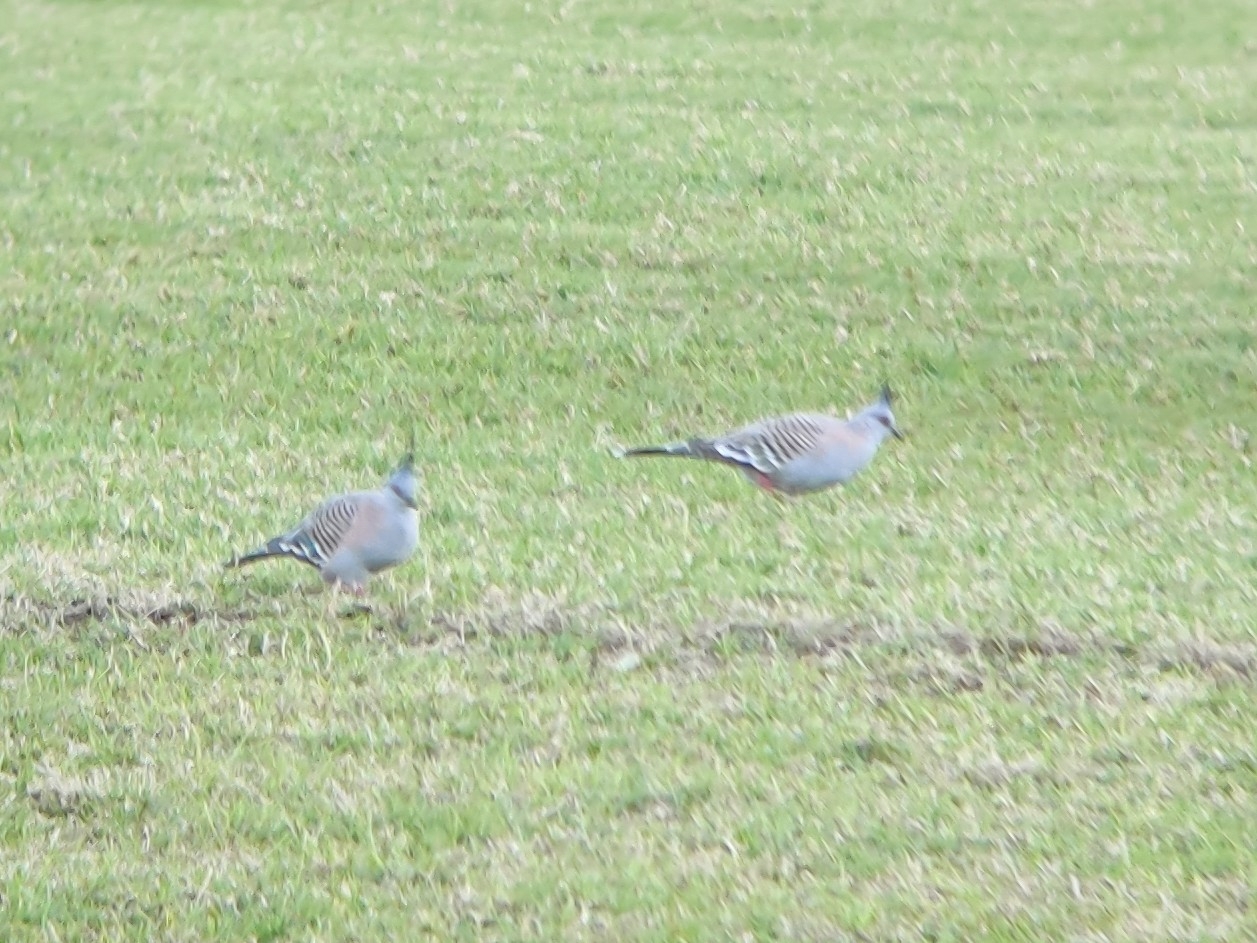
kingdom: Animalia
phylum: Chordata
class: Aves
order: Columbiformes
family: Columbidae
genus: Ocyphaps
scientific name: Ocyphaps lophotes
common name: Crested pigeon
